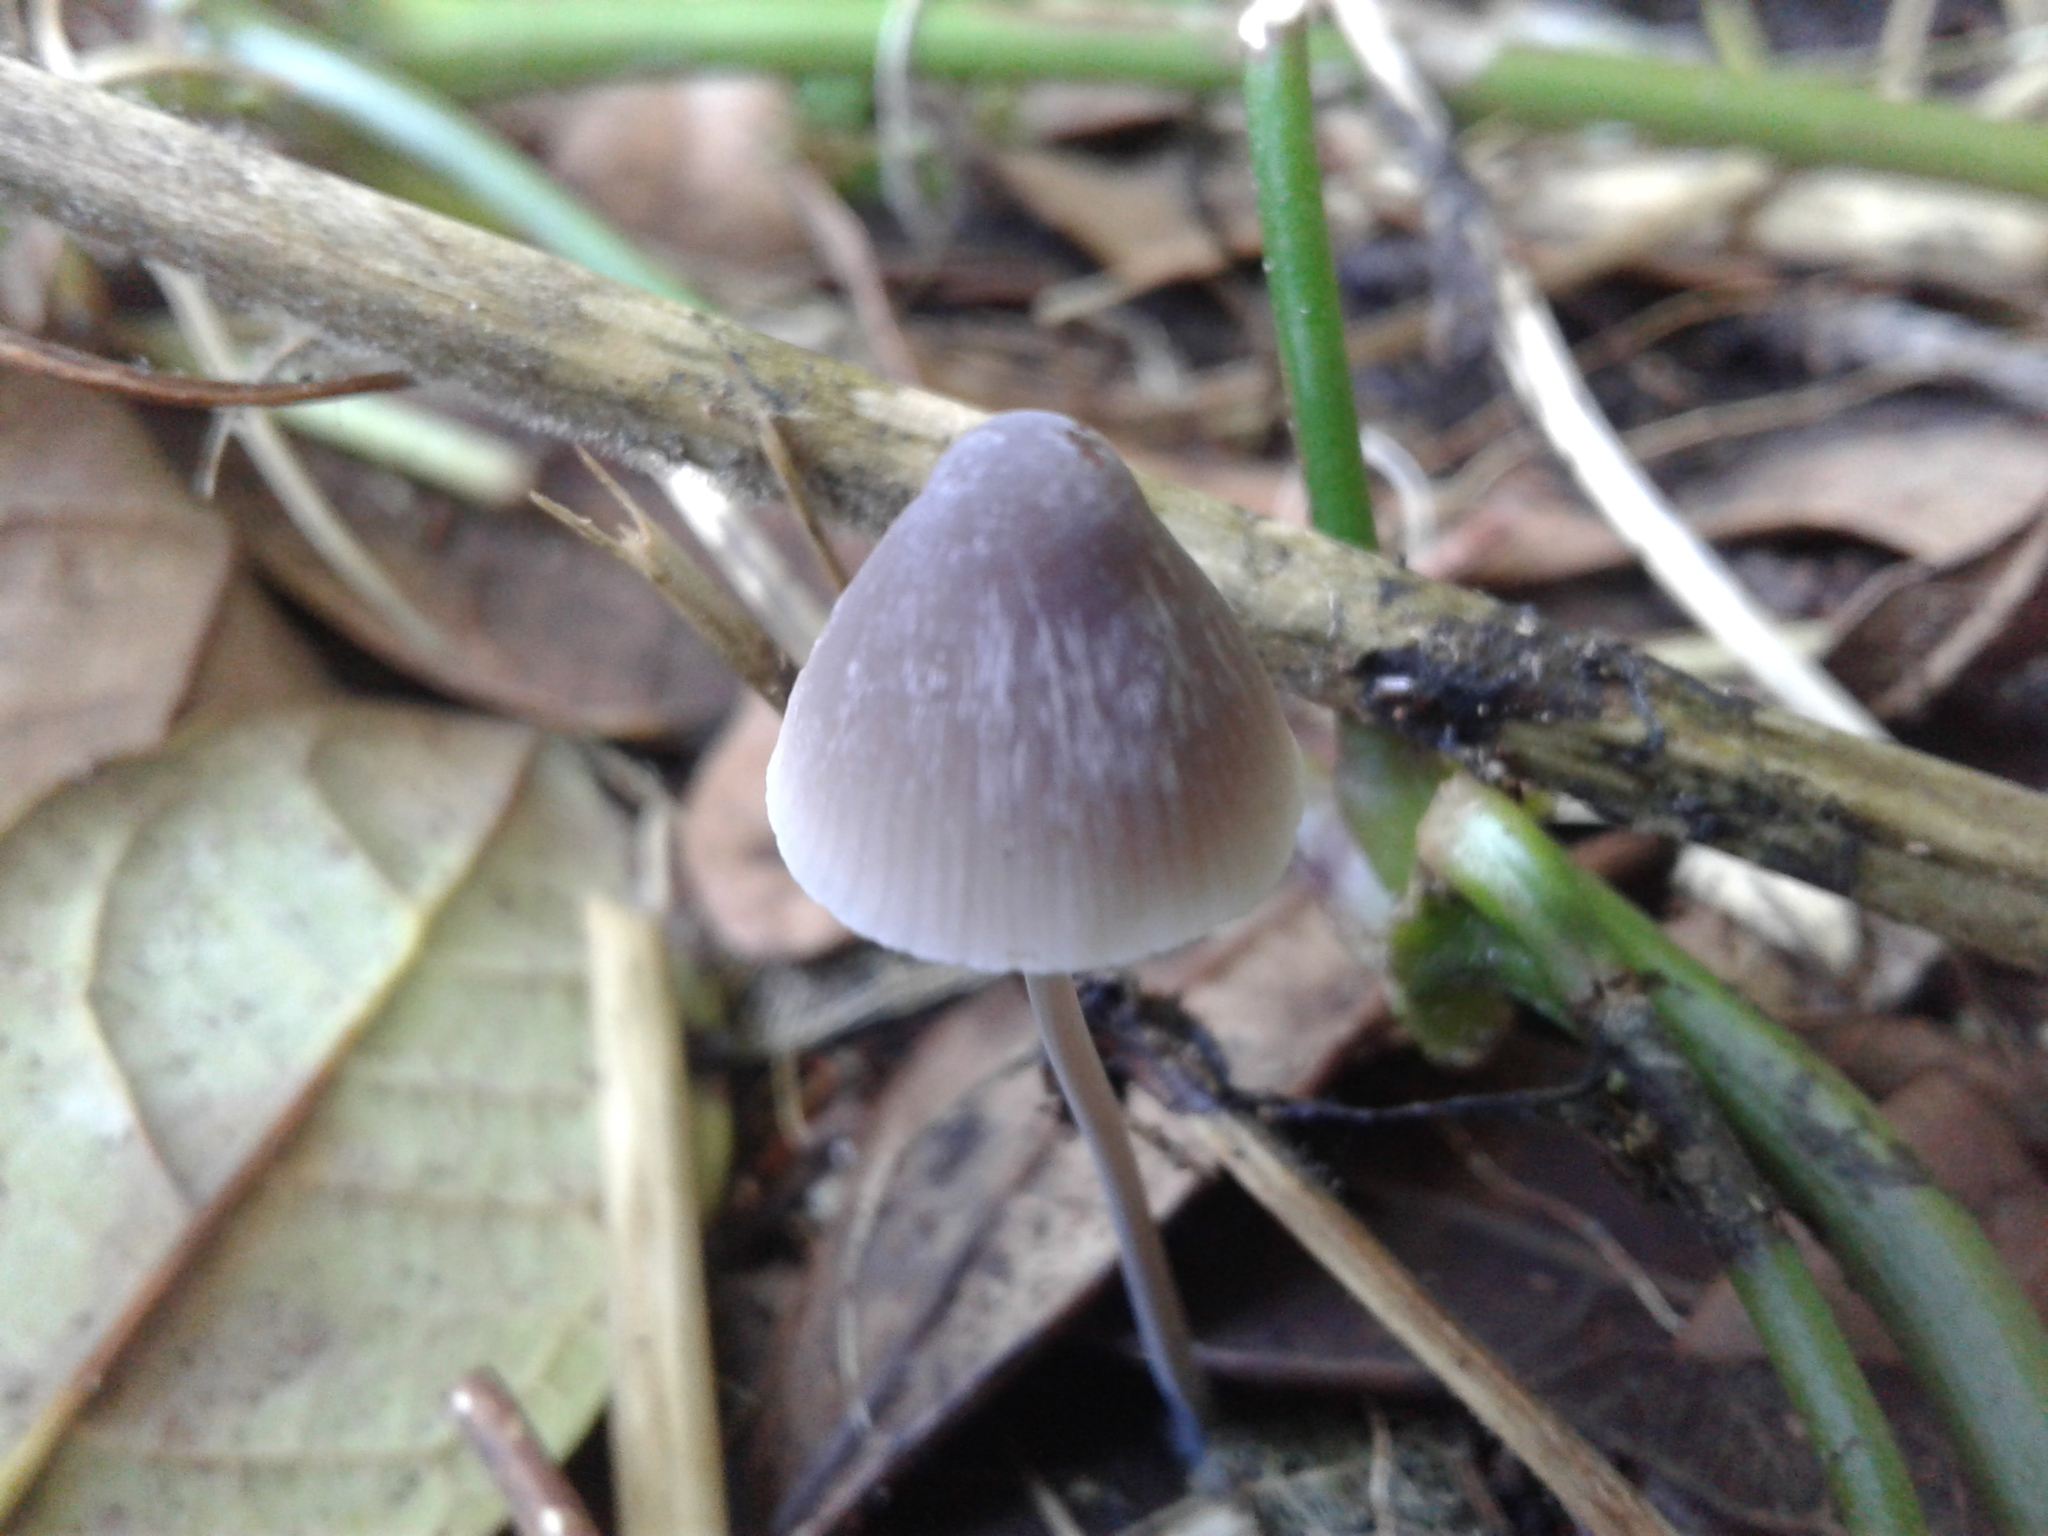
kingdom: Fungi
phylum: Basidiomycota
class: Agaricomycetes
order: Agaricales
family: Mycenaceae
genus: Mycena
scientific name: Mycena
